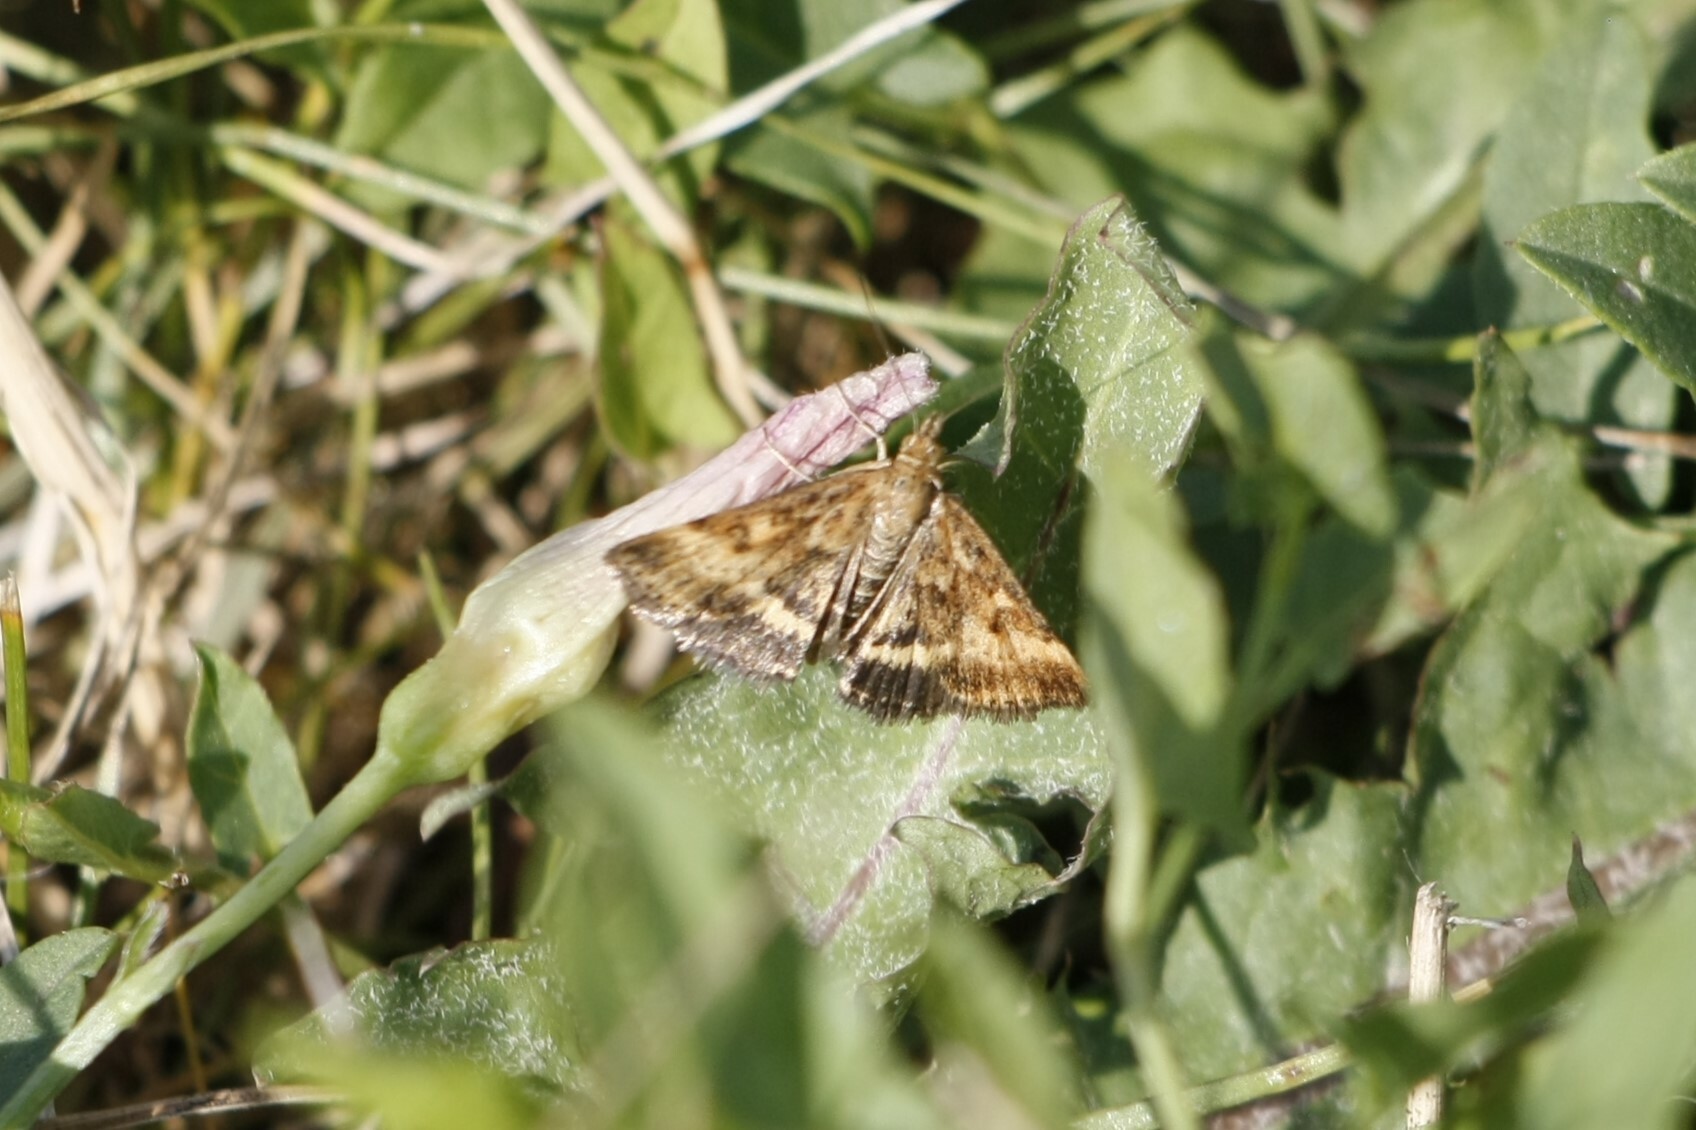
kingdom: Animalia
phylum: Arthropoda
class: Insecta
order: Lepidoptera
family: Crambidae
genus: Pyrausta
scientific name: Pyrausta despicata
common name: Straw-barred pearl
